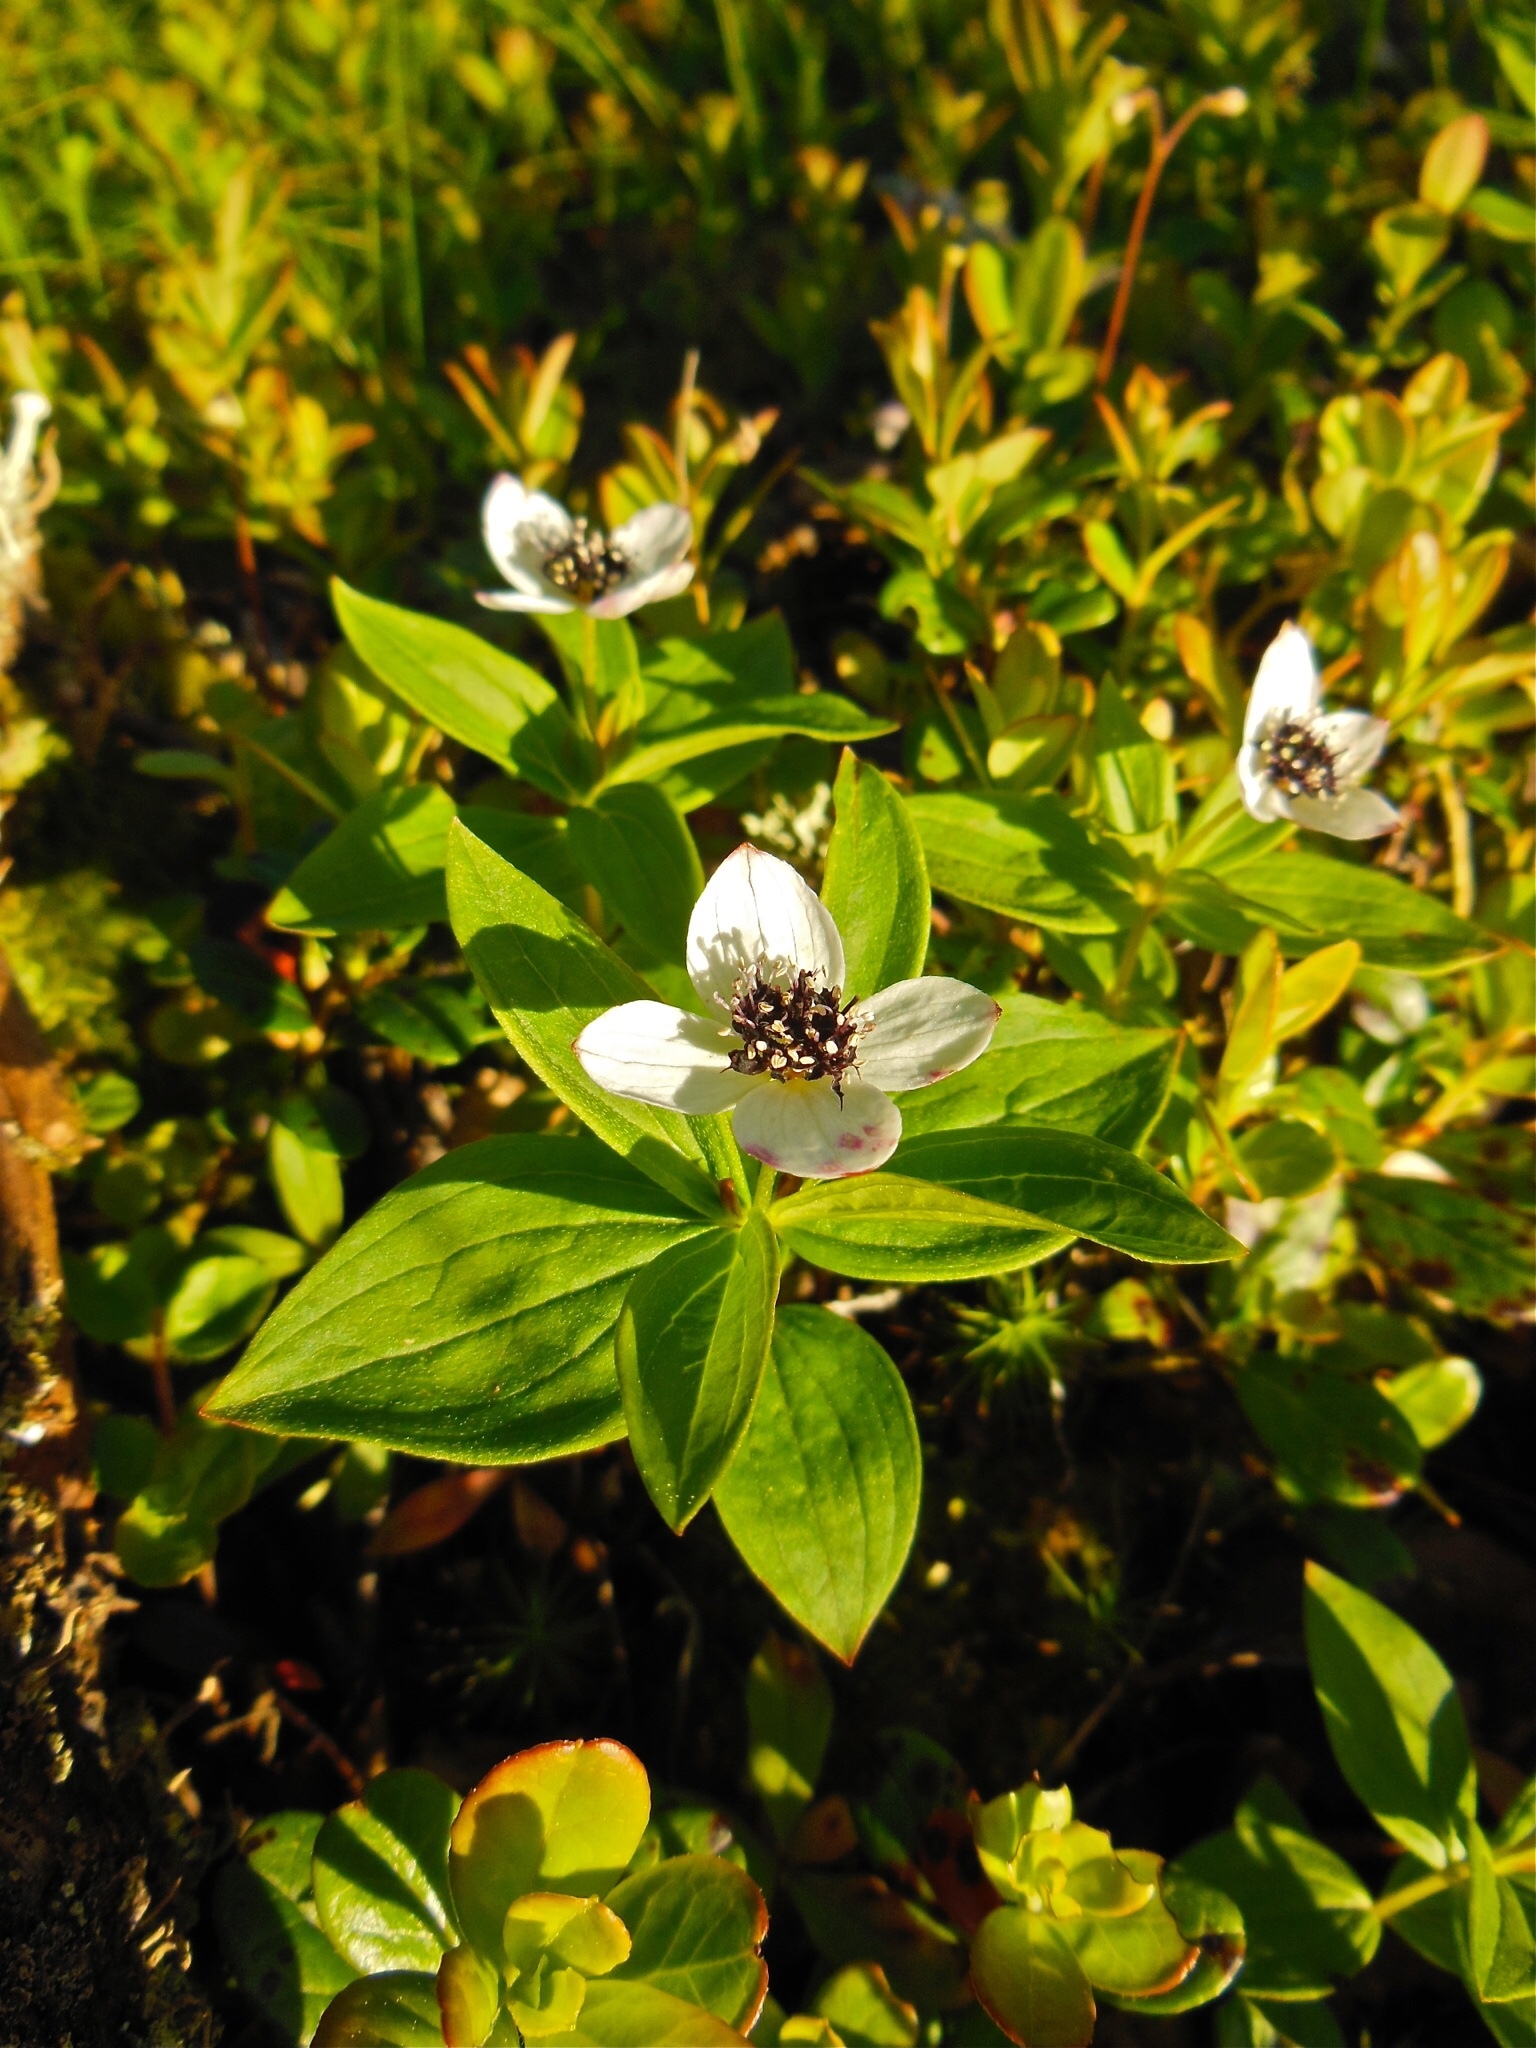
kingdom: Plantae
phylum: Tracheophyta
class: Magnoliopsida
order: Cornales
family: Cornaceae
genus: Cornus
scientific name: Cornus suecica
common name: Dwarf cornel
